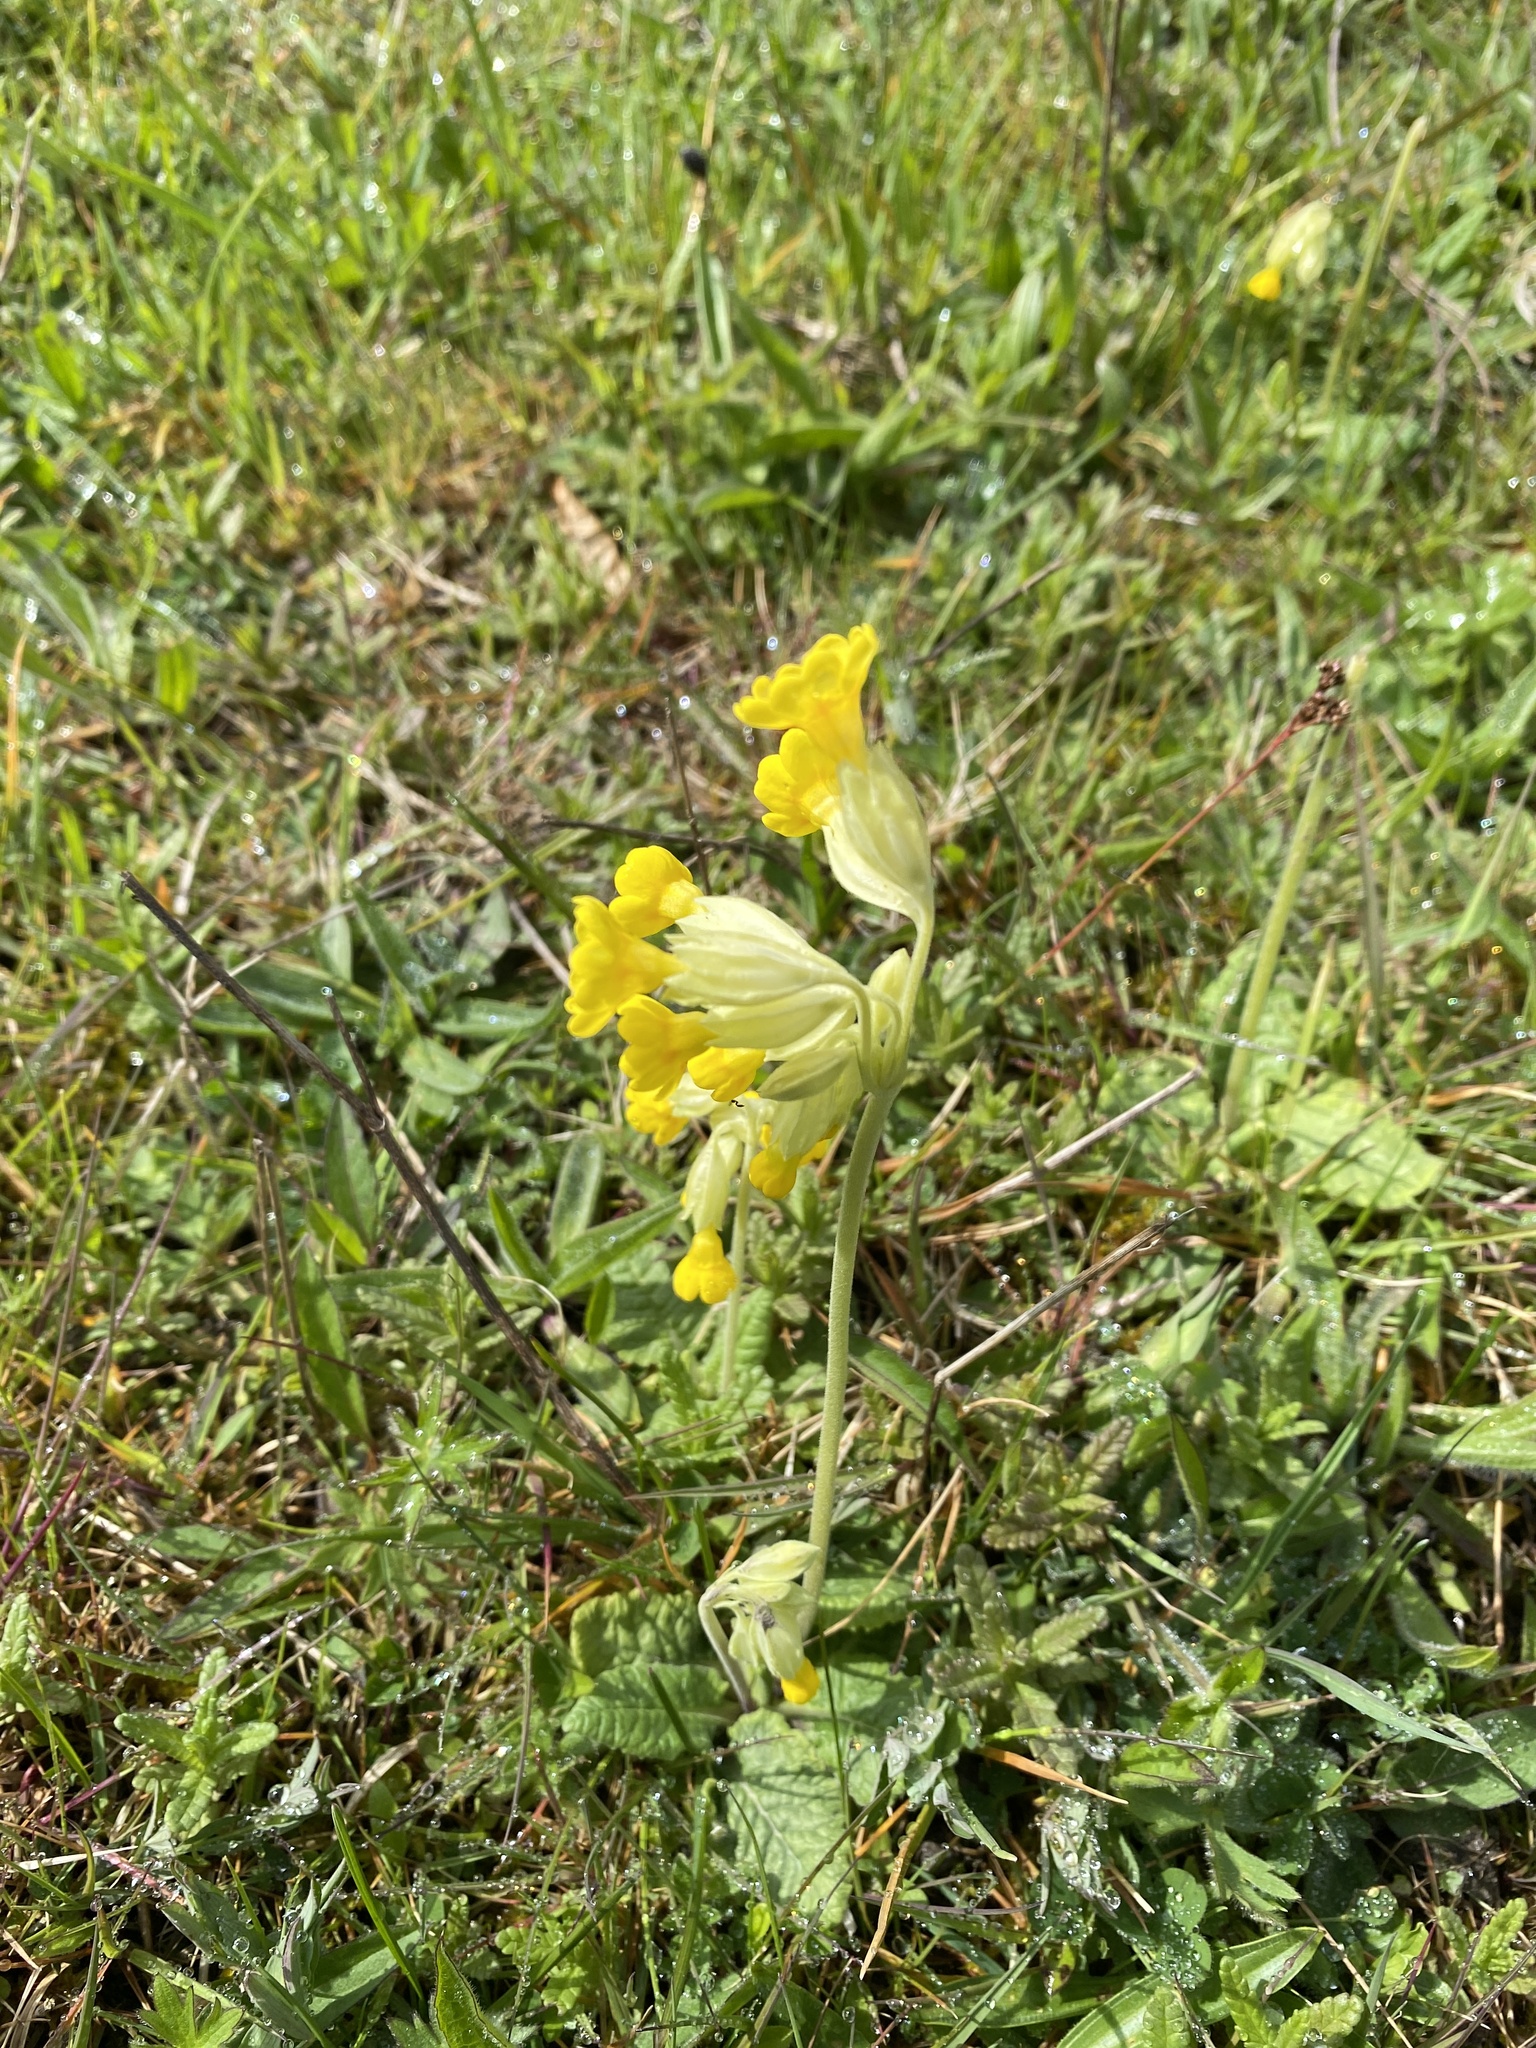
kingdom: Plantae
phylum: Tracheophyta
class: Magnoliopsida
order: Ericales
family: Primulaceae
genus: Primula
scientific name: Primula veris
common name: Cowslip
